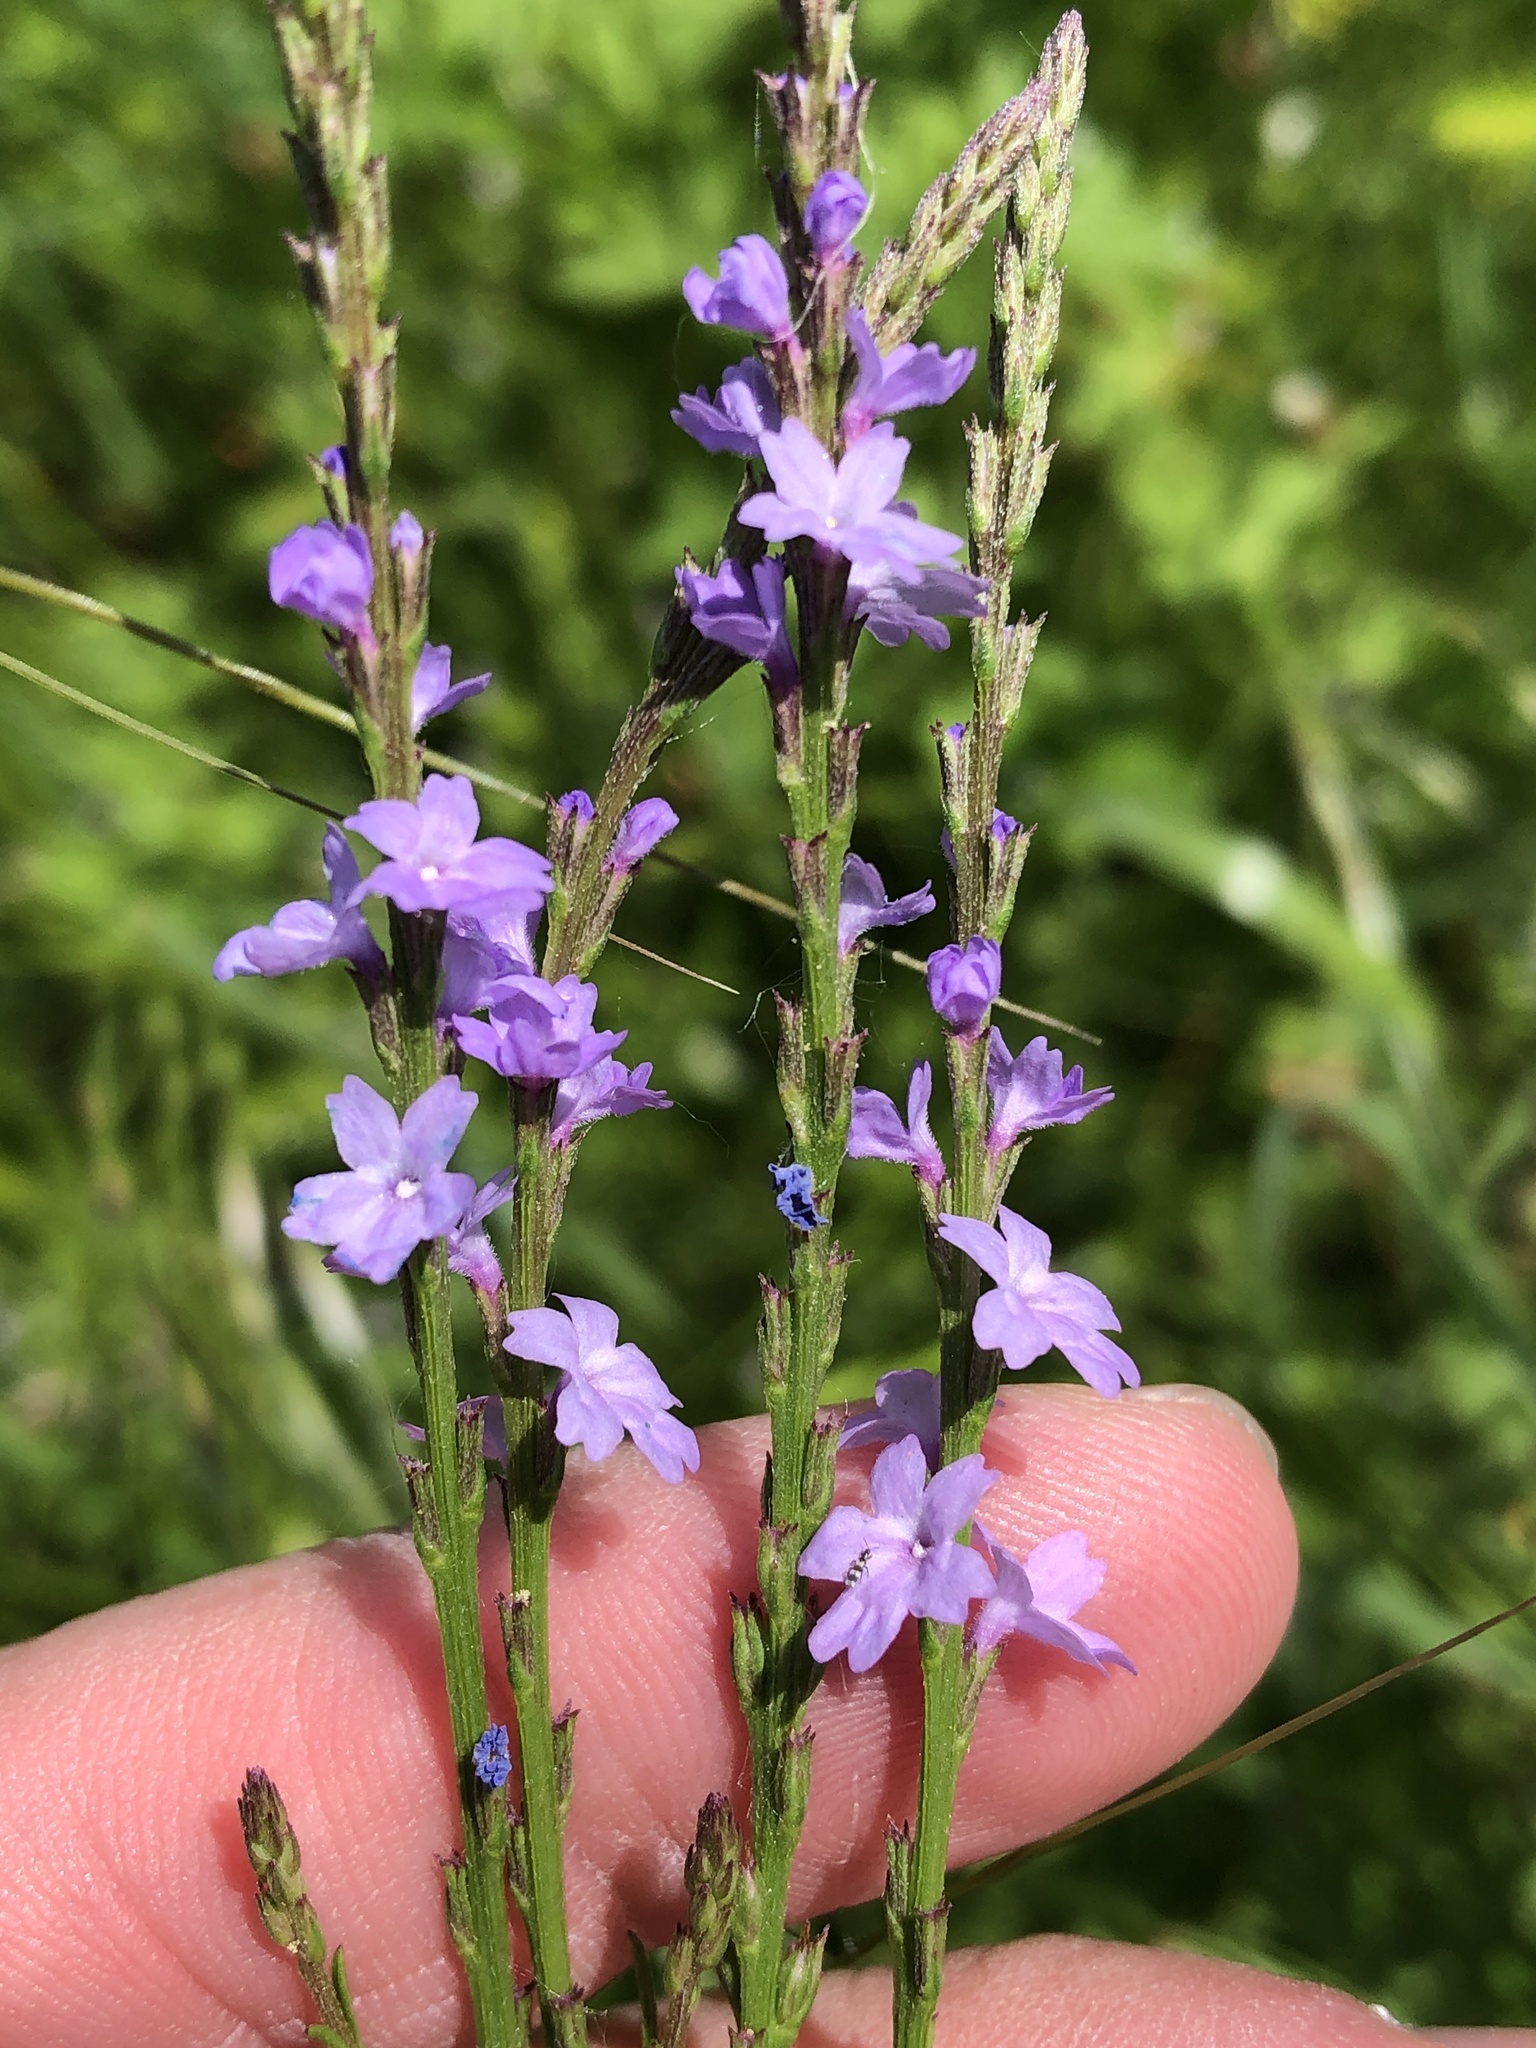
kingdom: Plantae
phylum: Tracheophyta
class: Magnoliopsida
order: Lamiales
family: Verbenaceae
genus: Verbena
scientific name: Verbena halei
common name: Texas vervain
